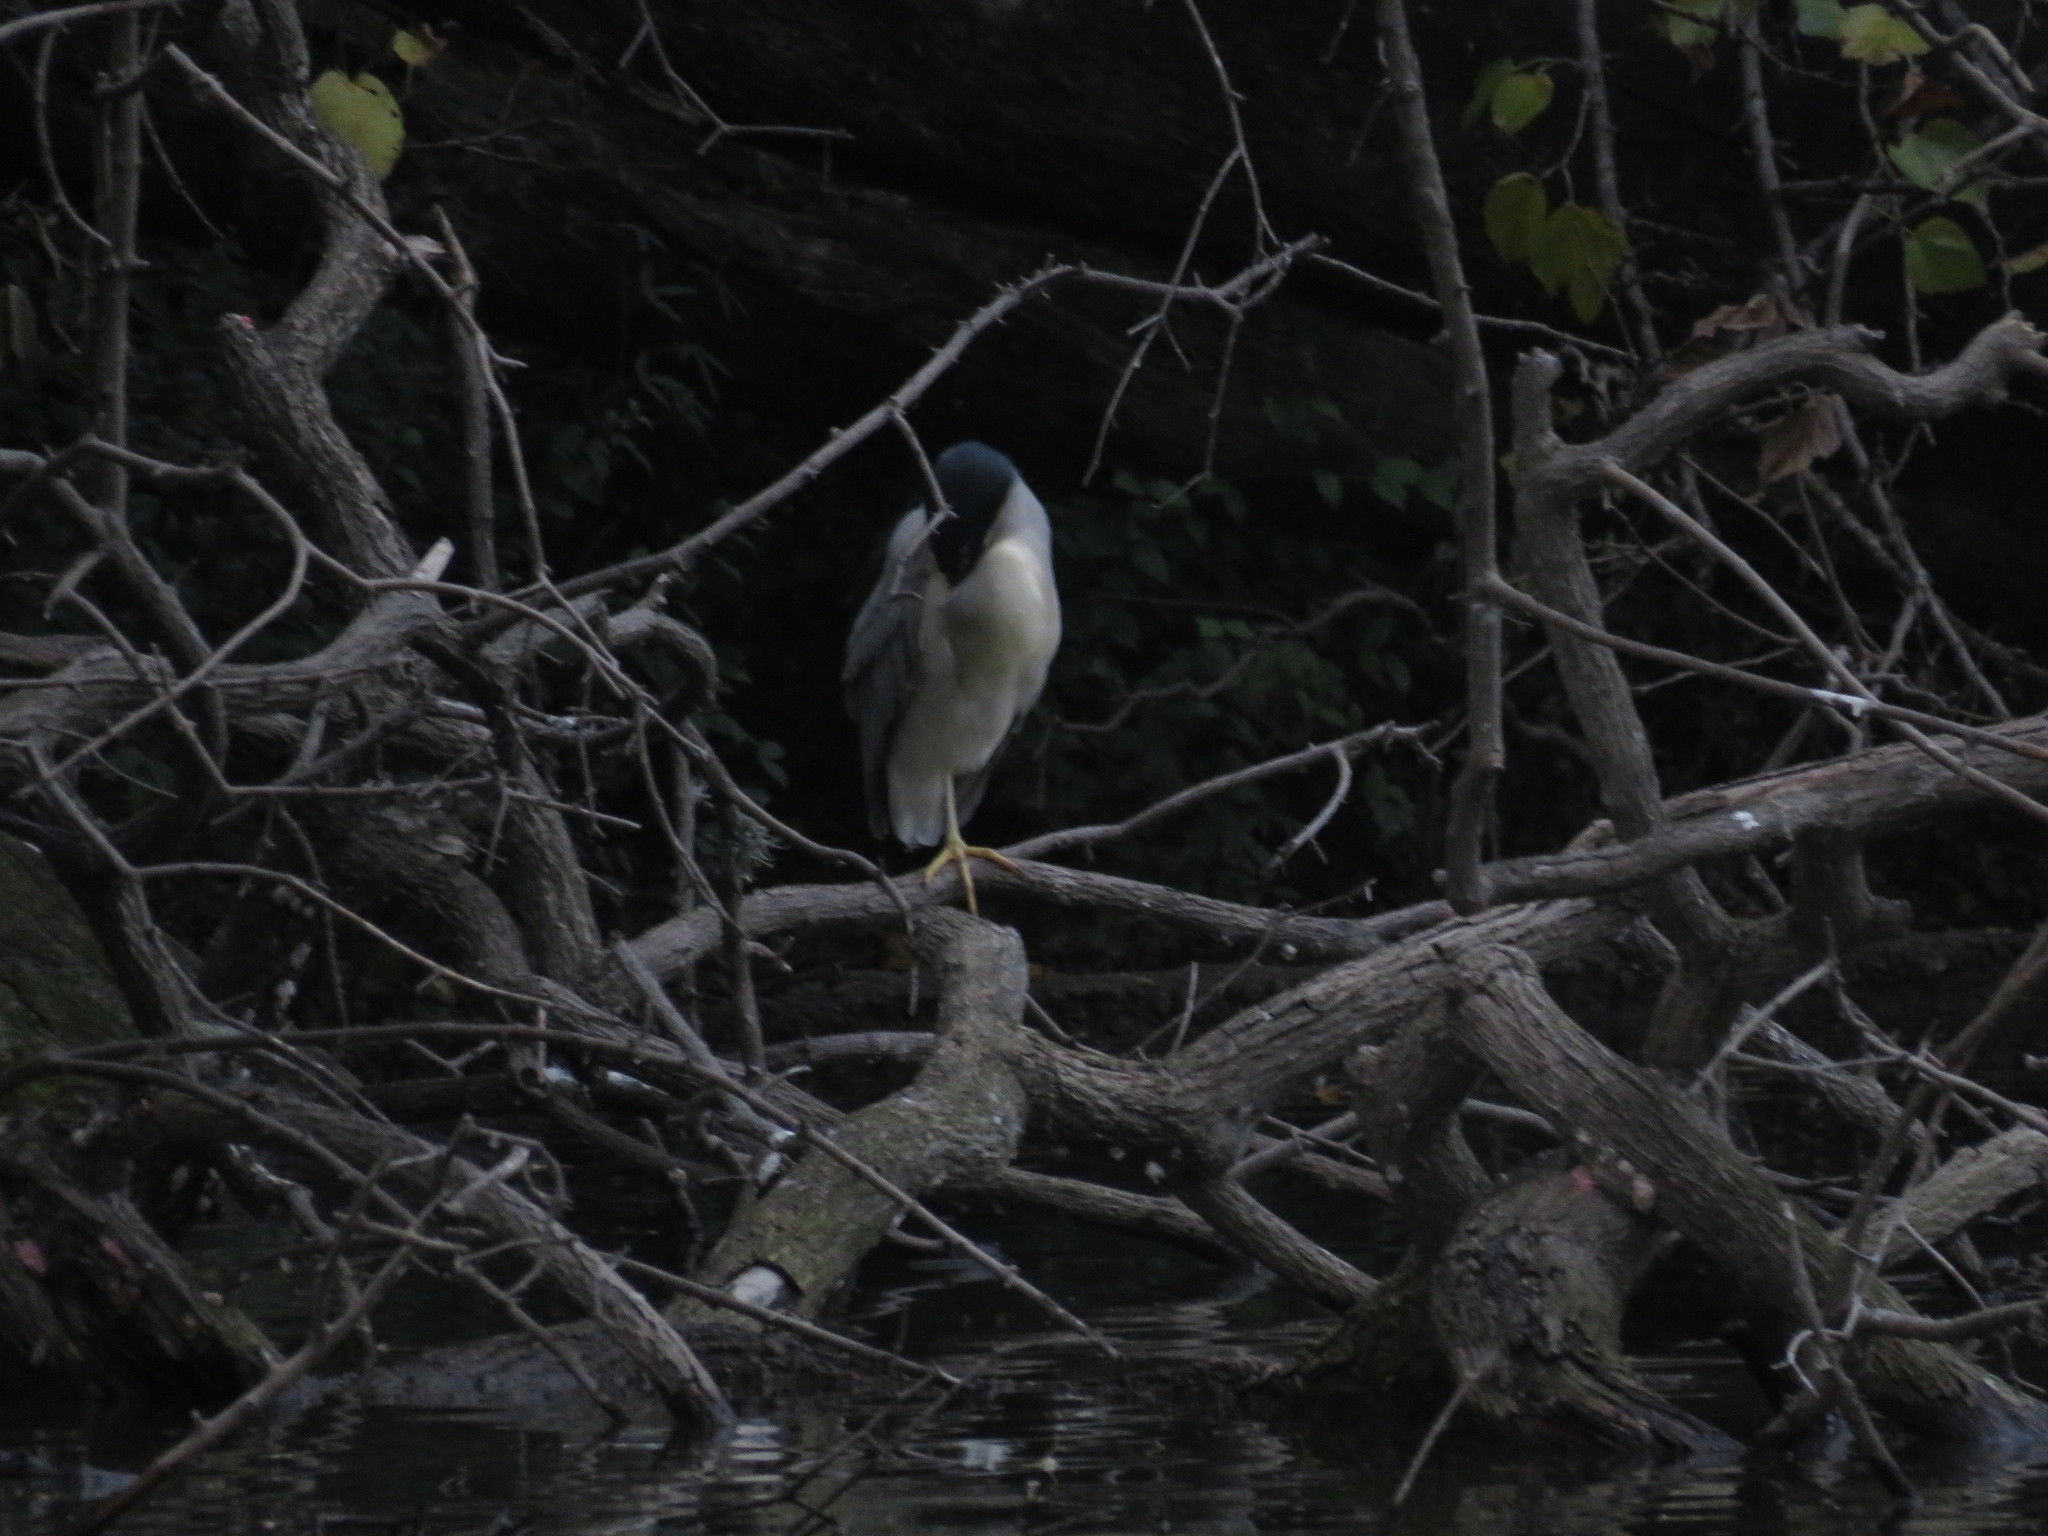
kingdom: Animalia
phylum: Chordata
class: Aves
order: Pelecaniformes
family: Ardeidae
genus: Nycticorax
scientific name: Nycticorax nycticorax
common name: Black-crowned night heron
